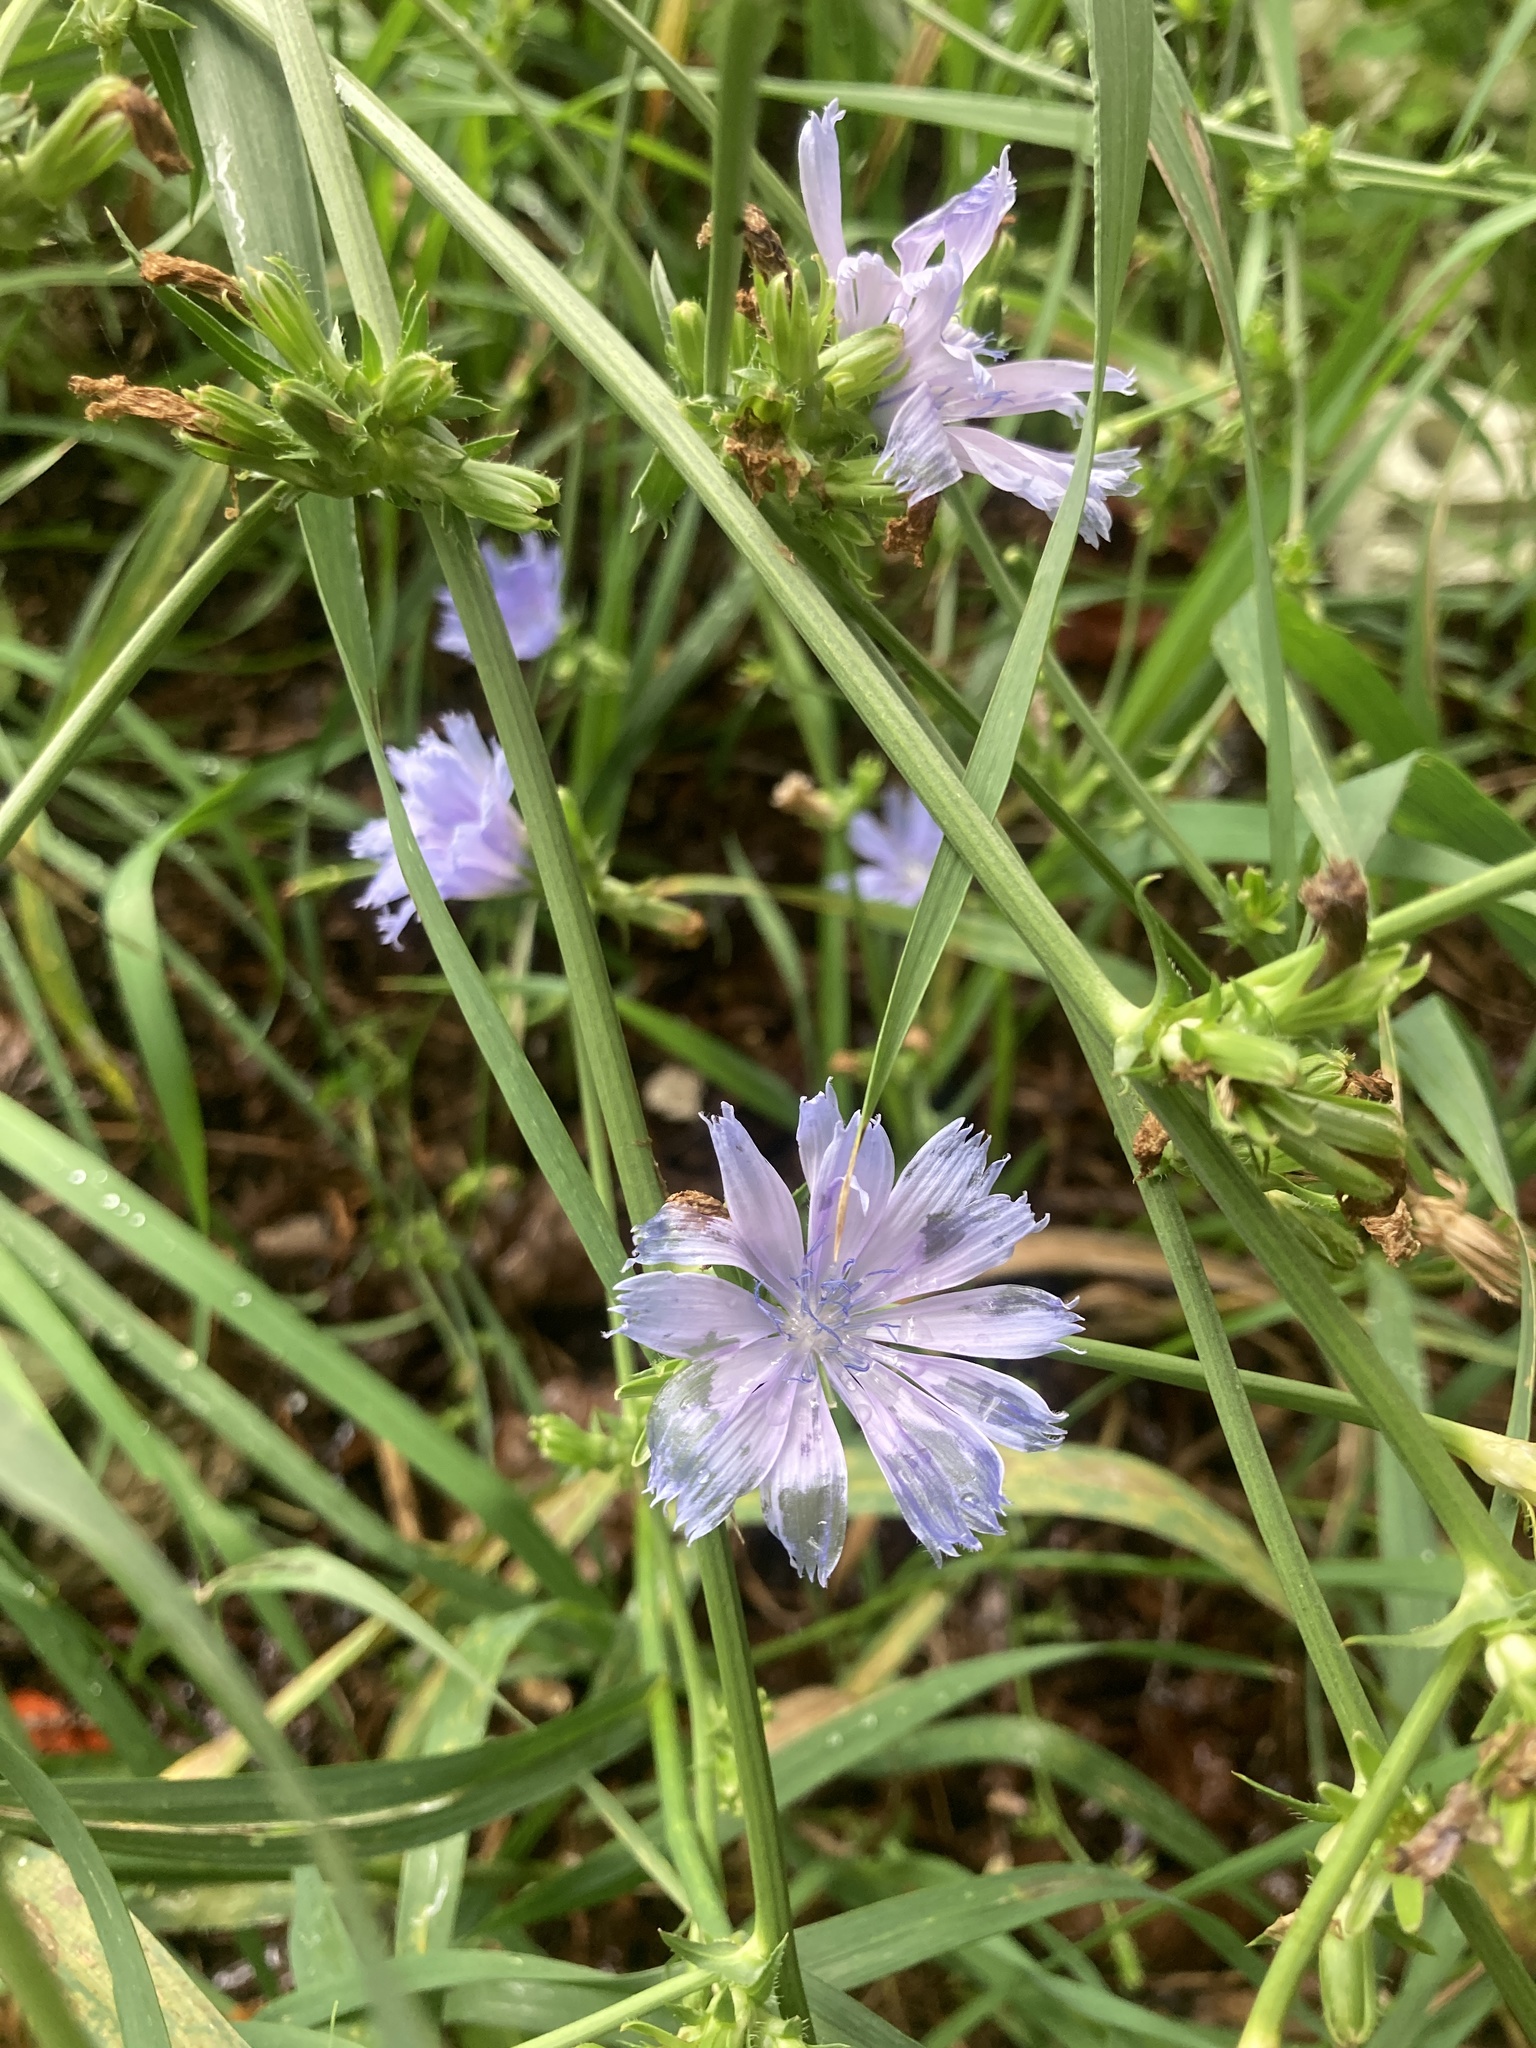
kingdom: Plantae
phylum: Tracheophyta
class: Magnoliopsida
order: Asterales
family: Asteraceae
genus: Cichorium
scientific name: Cichorium intybus
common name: Chicory
